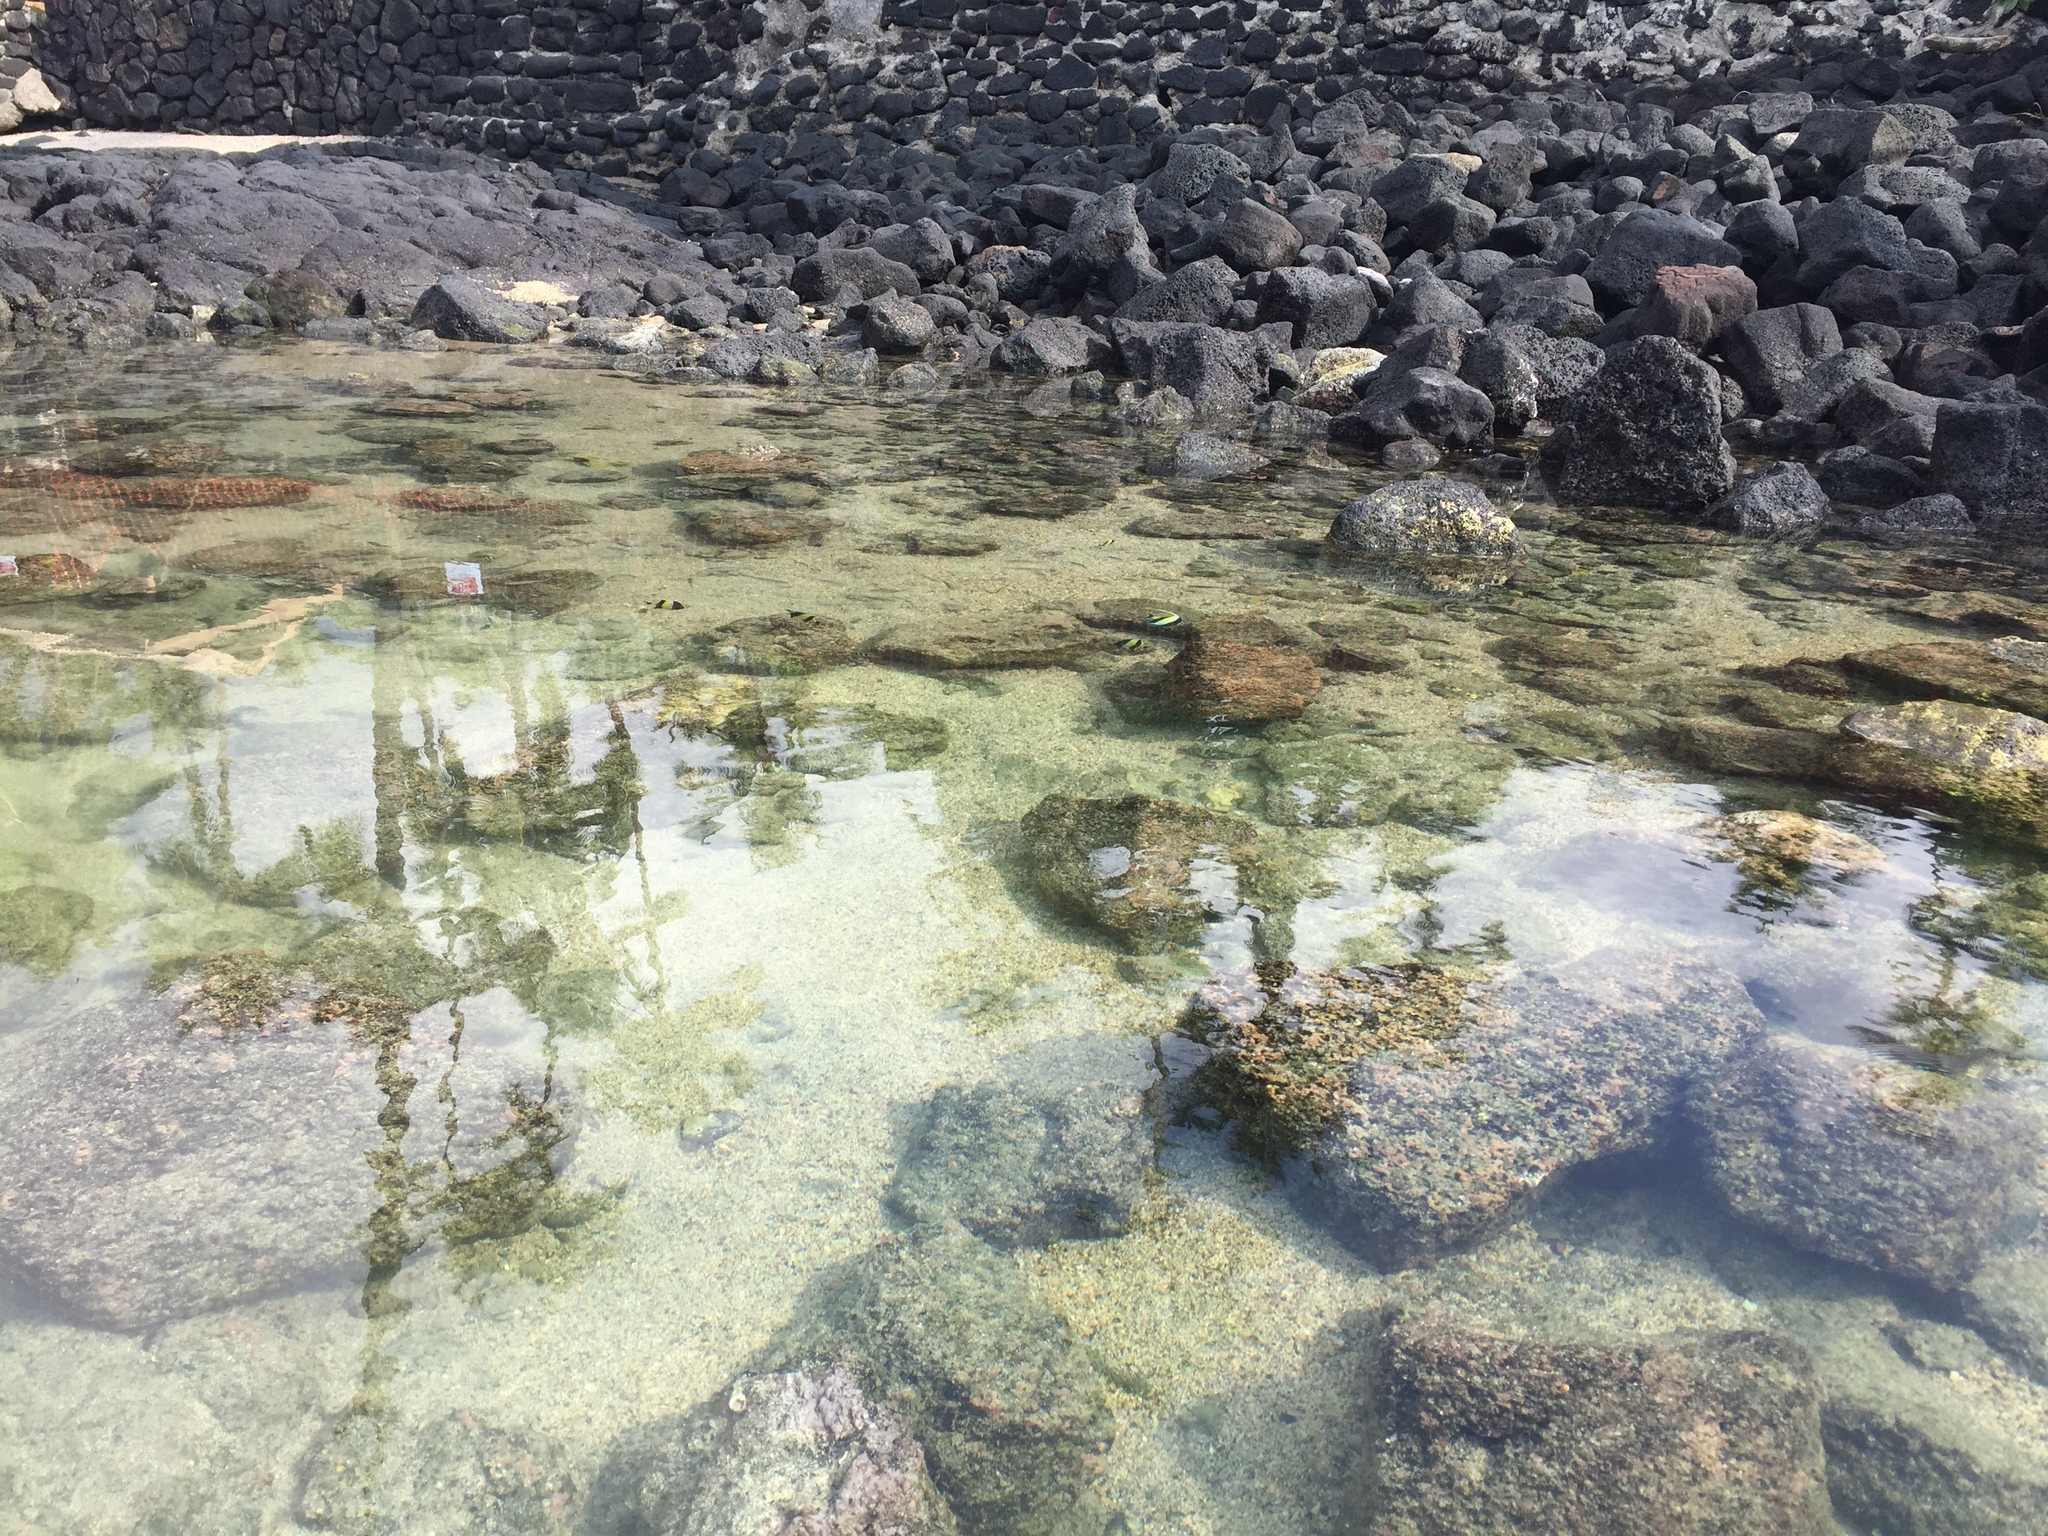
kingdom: Animalia
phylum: Chordata
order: Perciformes
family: Zanclidae
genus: Zanclus
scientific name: Zanclus cornutus
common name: Moorish idol
